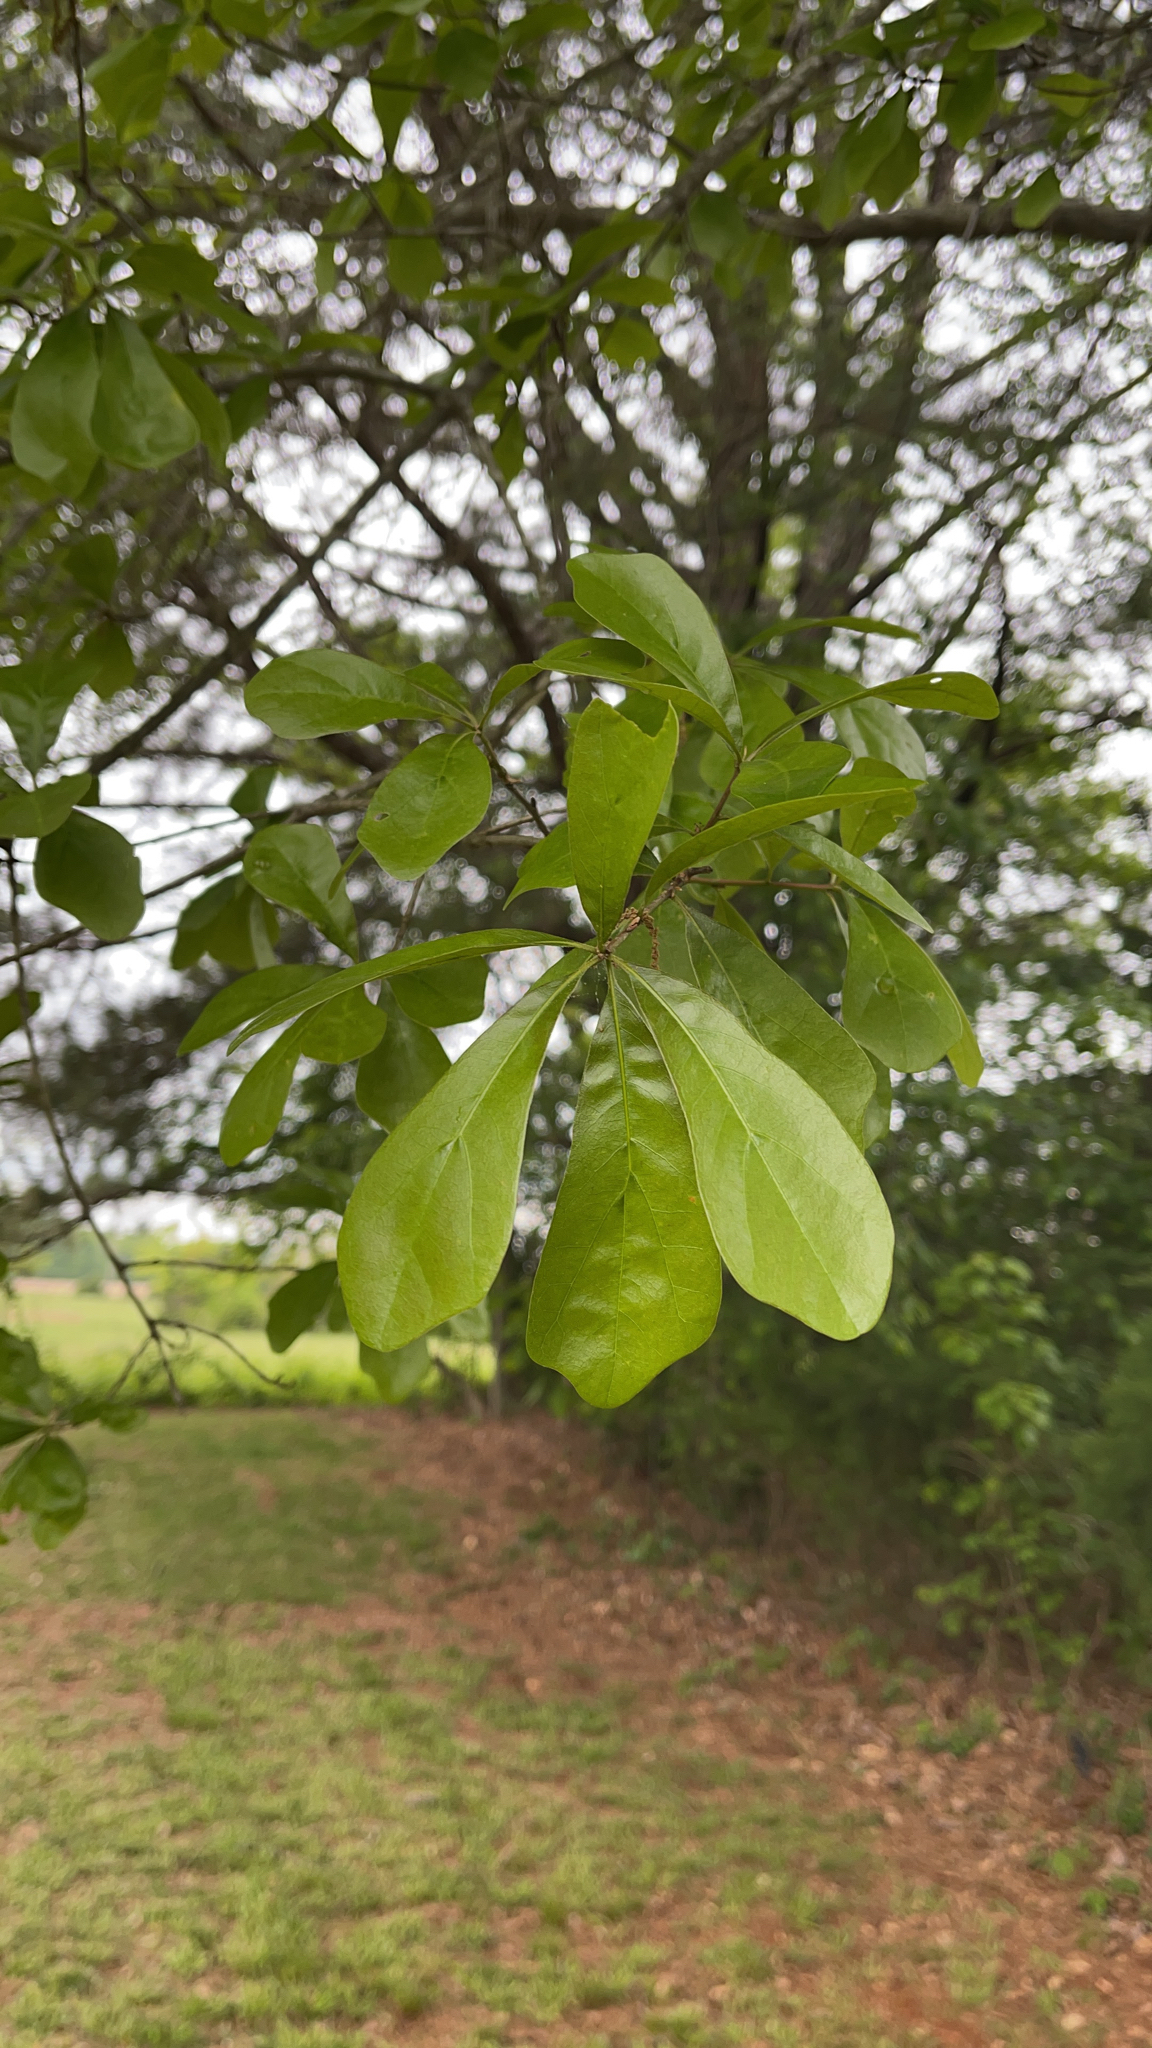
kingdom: Plantae
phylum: Tracheophyta
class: Magnoliopsida
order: Fagales
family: Fagaceae
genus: Quercus
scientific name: Quercus nigra
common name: Water oak
